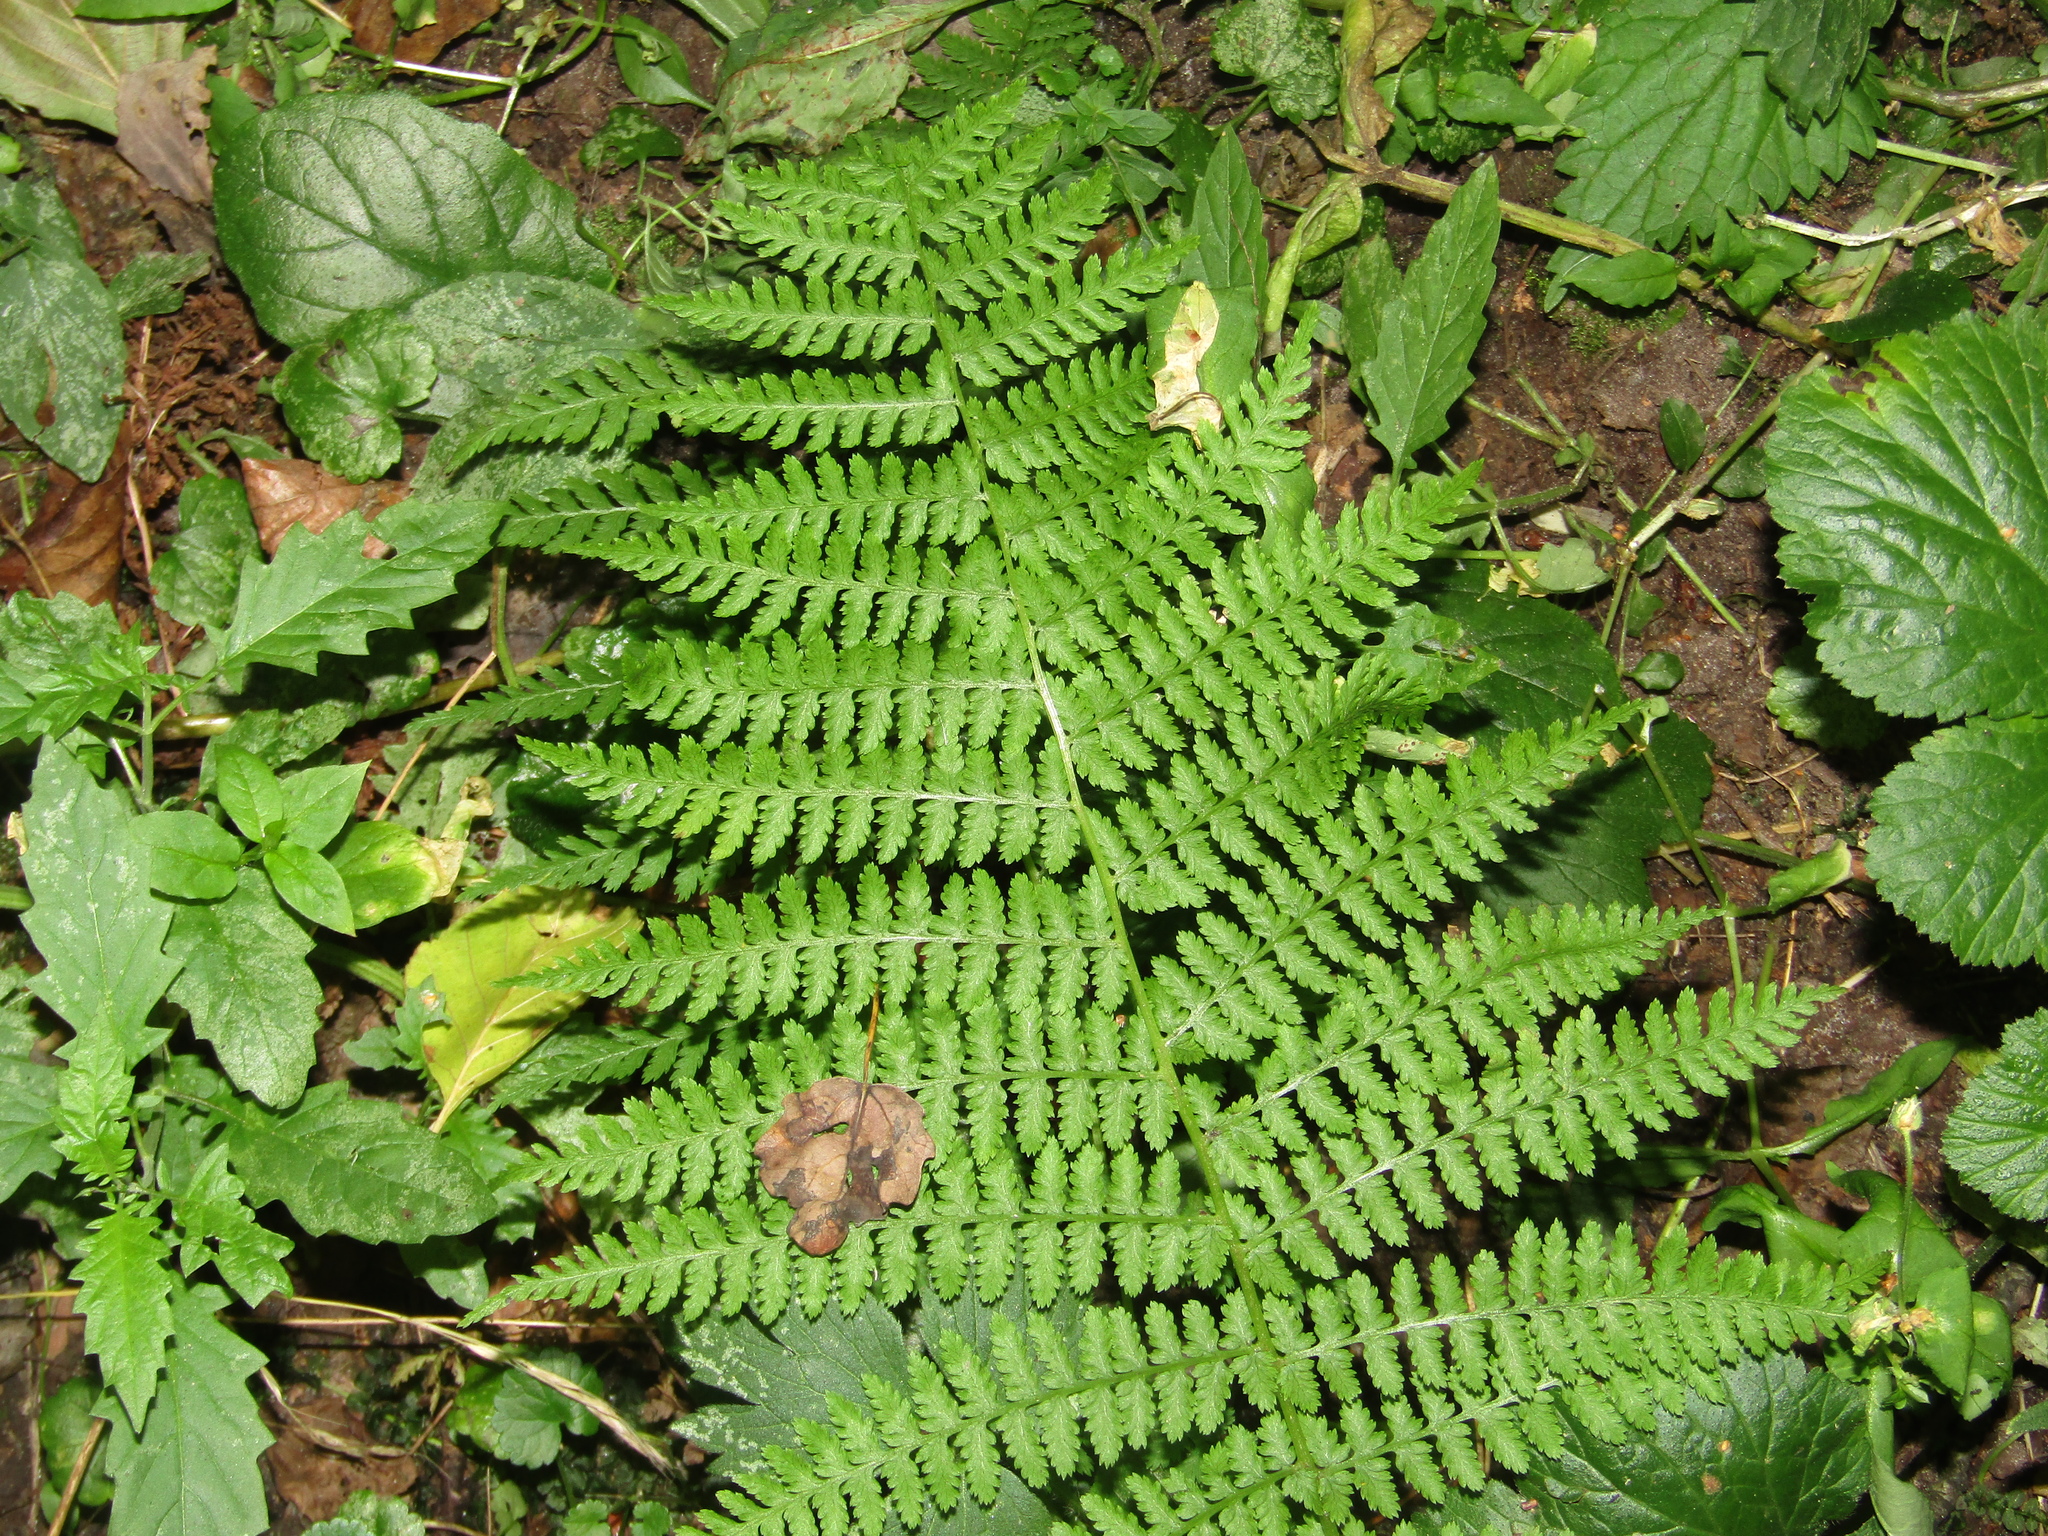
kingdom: Plantae
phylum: Tracheophyta
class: Polypodiopsida
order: Polypodiales
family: Athyriaceae
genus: Athyrium
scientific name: Athyrium filix-femina
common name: Lady fern
